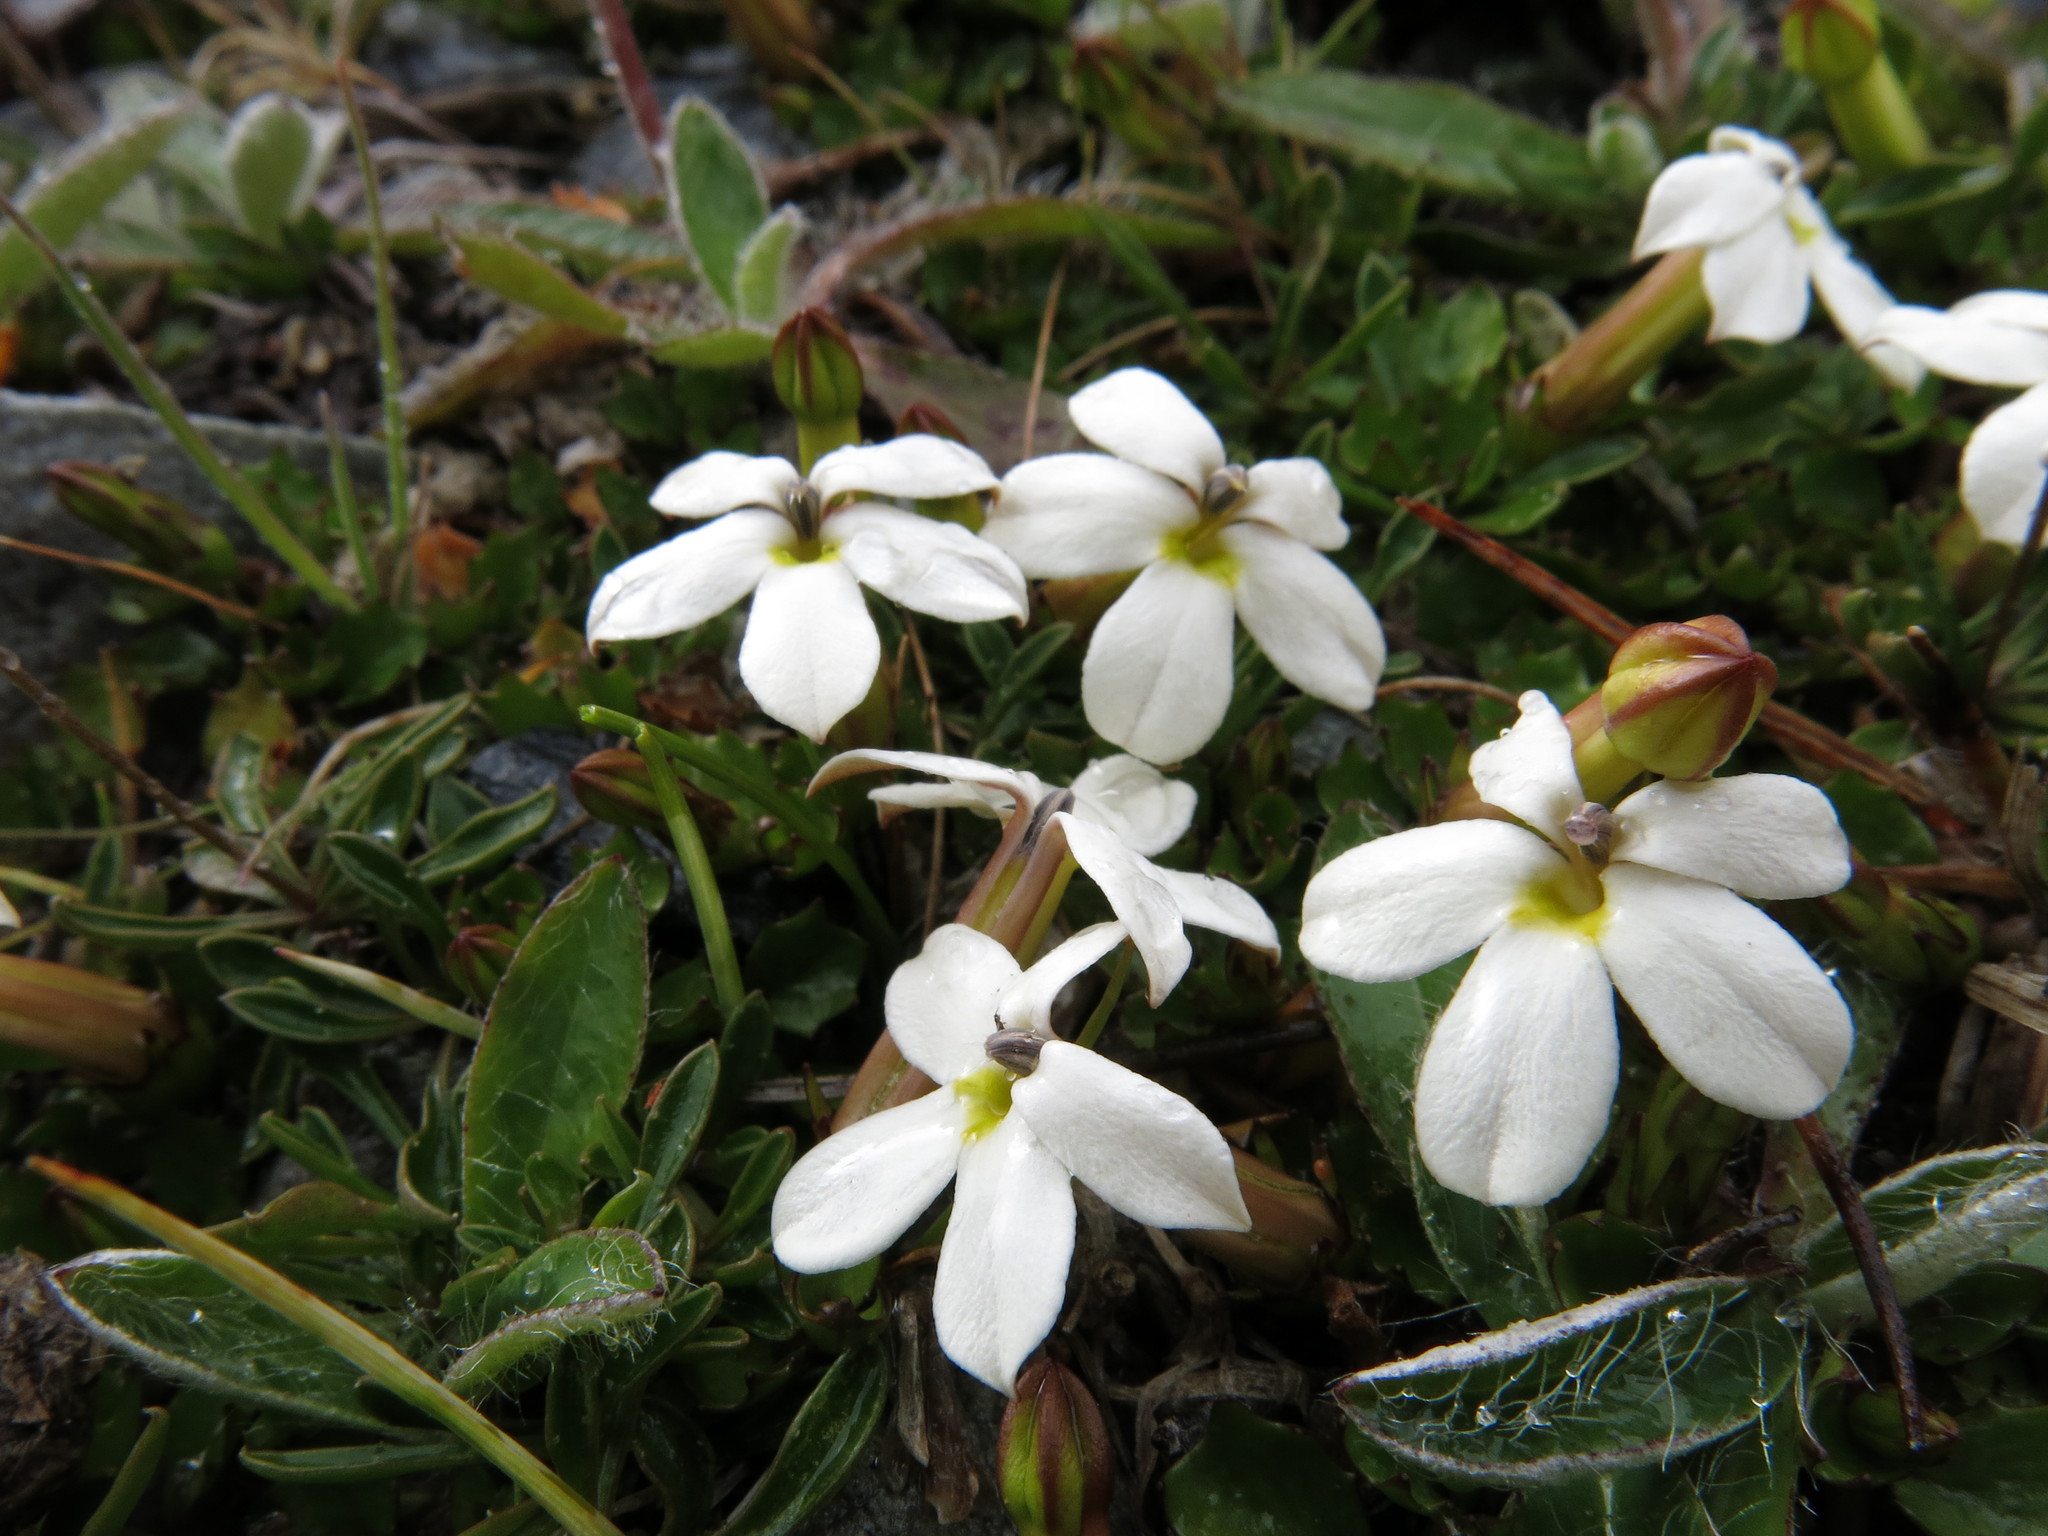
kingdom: Plantae
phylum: Tracheophyta
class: Magnoliopsida
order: Asterales
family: Campanulaceae
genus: Lobelia
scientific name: Lobelia macrodon
